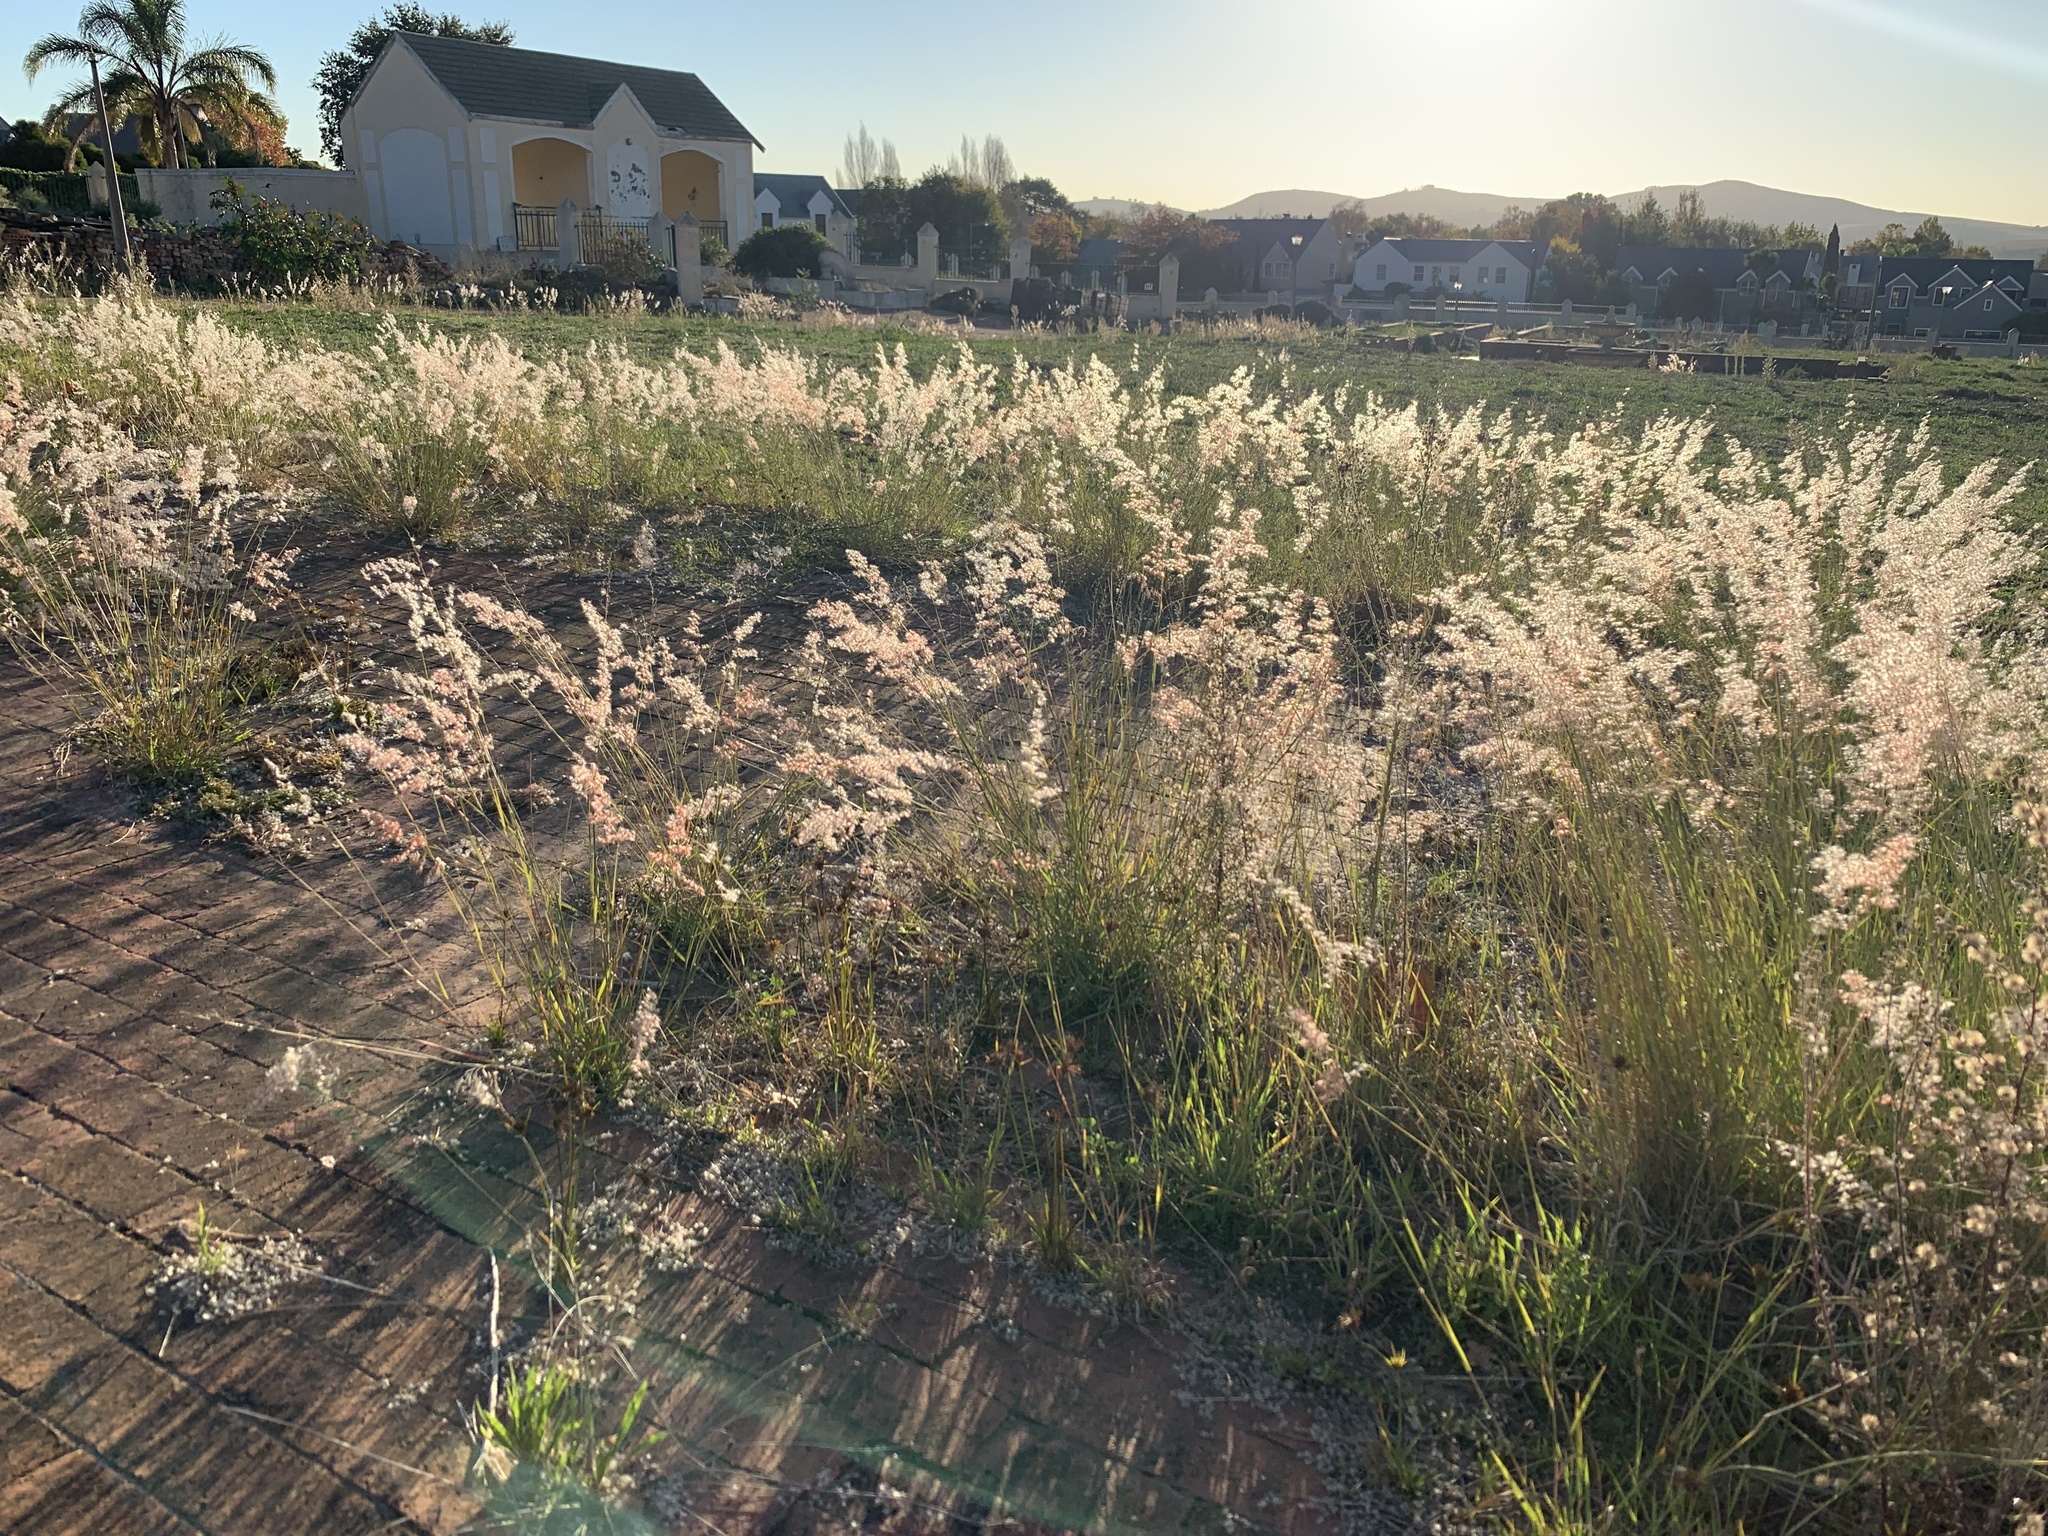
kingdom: Plantae
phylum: Tracheophyta
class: Liliopsida
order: Poales
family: Poaceae
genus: Melinis
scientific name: Melinis repens
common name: Rose natal grass
